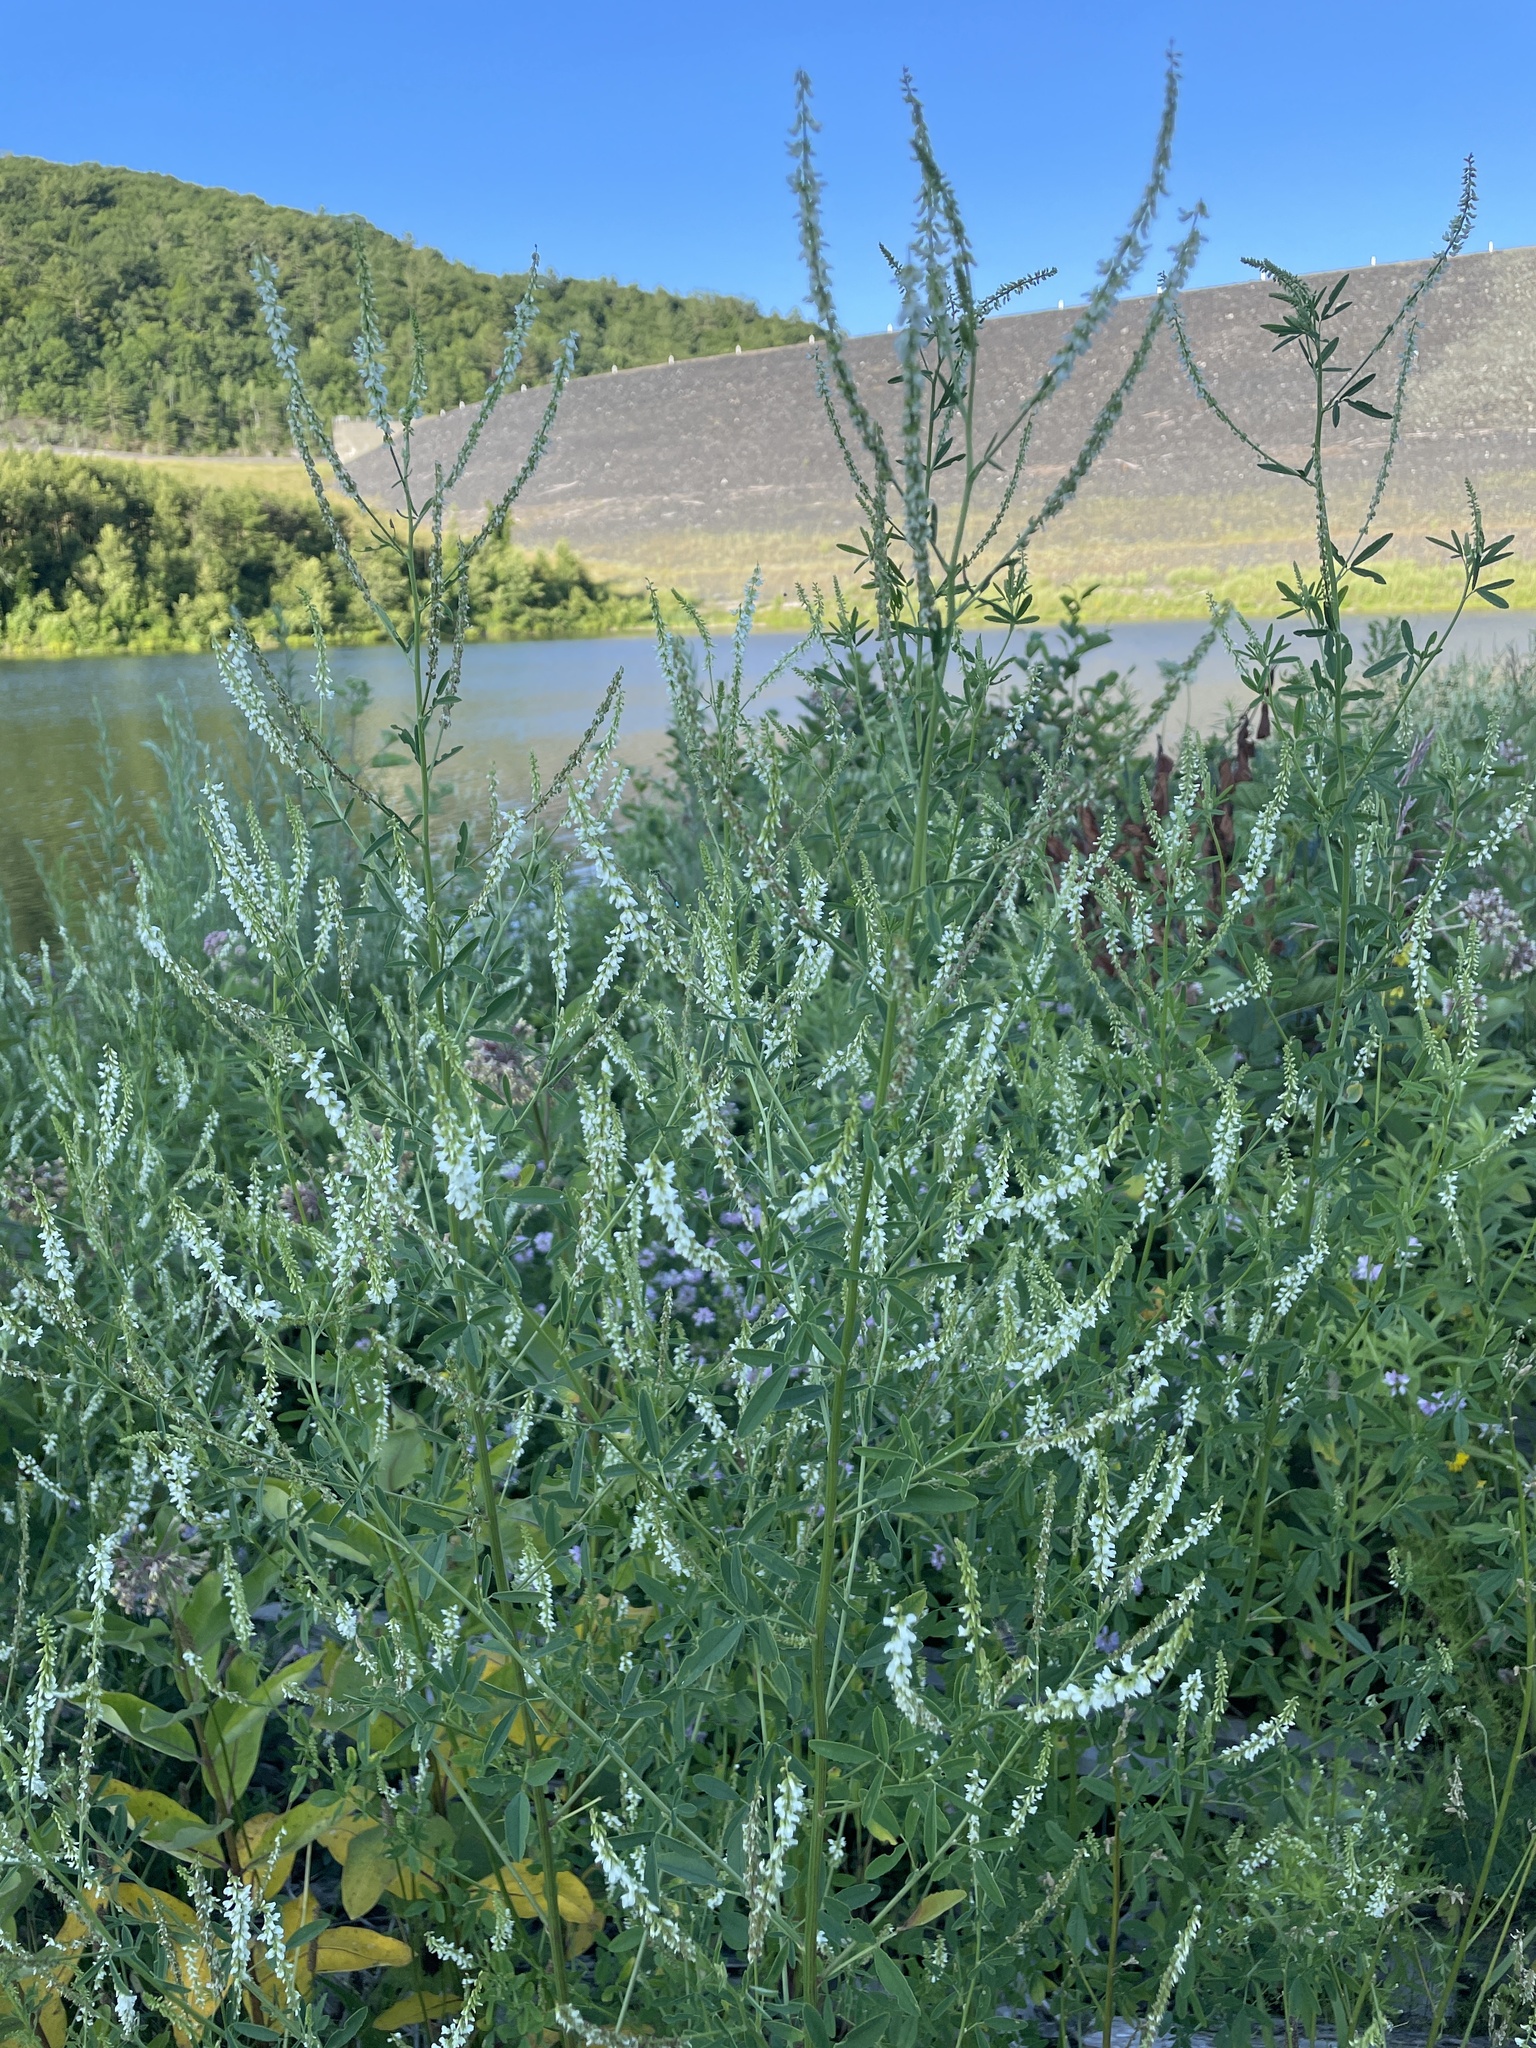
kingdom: Plantae
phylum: Tracheophyta
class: Magnoliopsida
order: Fabales
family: Fabaceae
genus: Melilotus
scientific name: Melilotus albus
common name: White melilot
